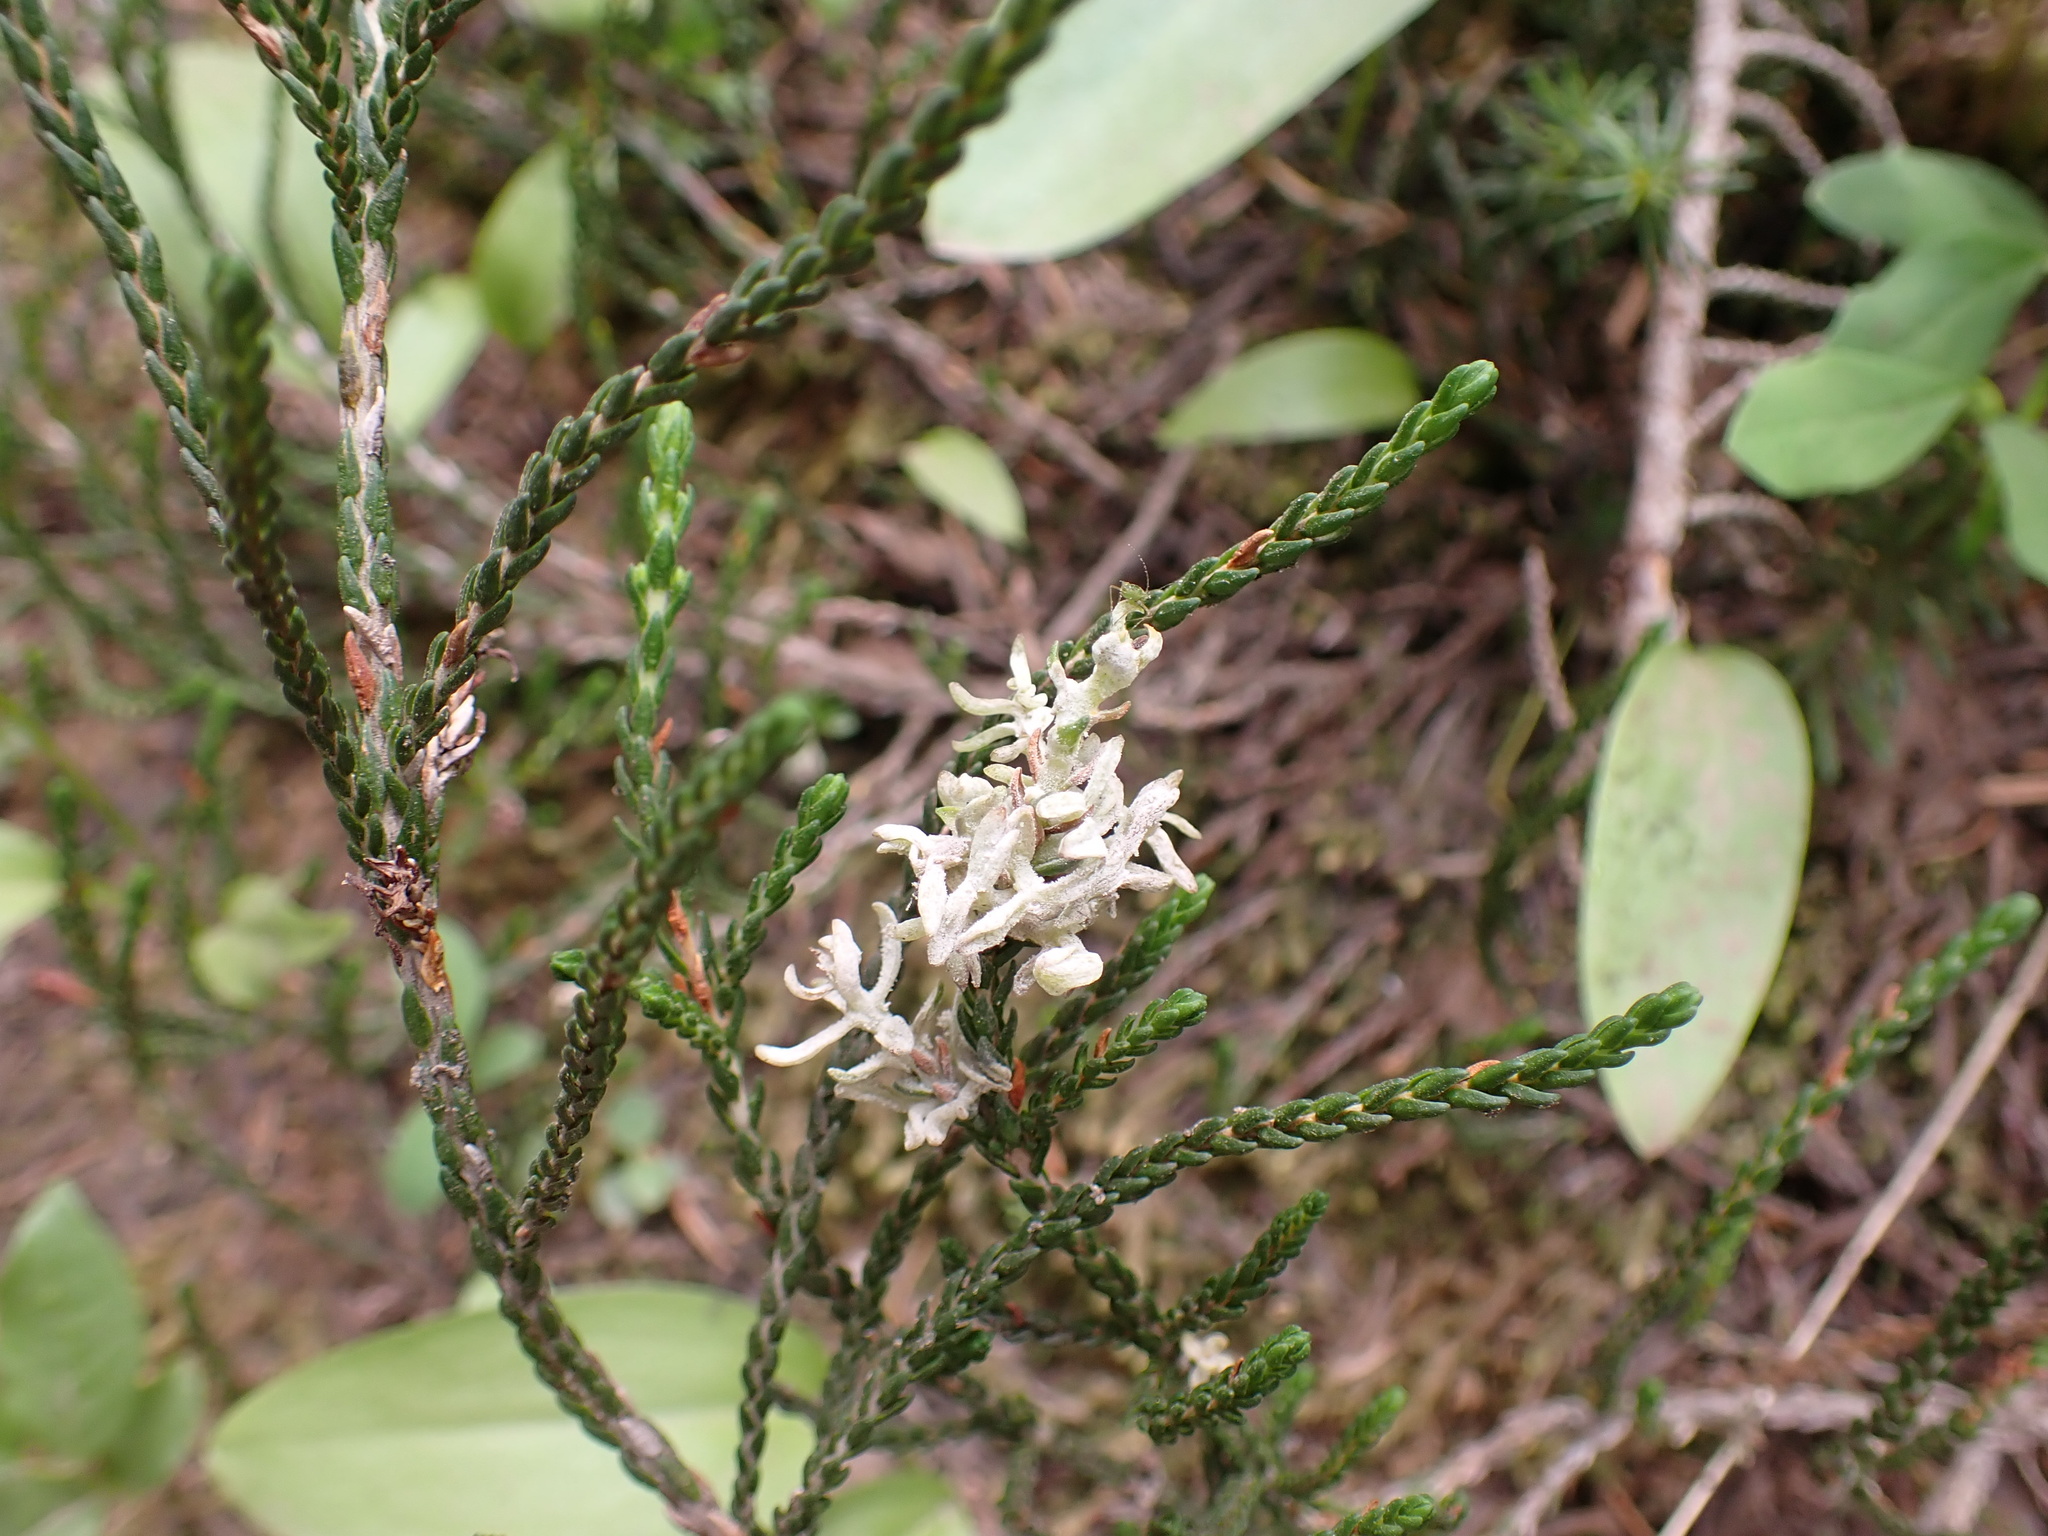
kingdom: Plantae
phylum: Tracheophyta
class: Magnoliopsida
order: Ericales
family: Ericaceae
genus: Cassiope
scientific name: Cassiope mertensiana
